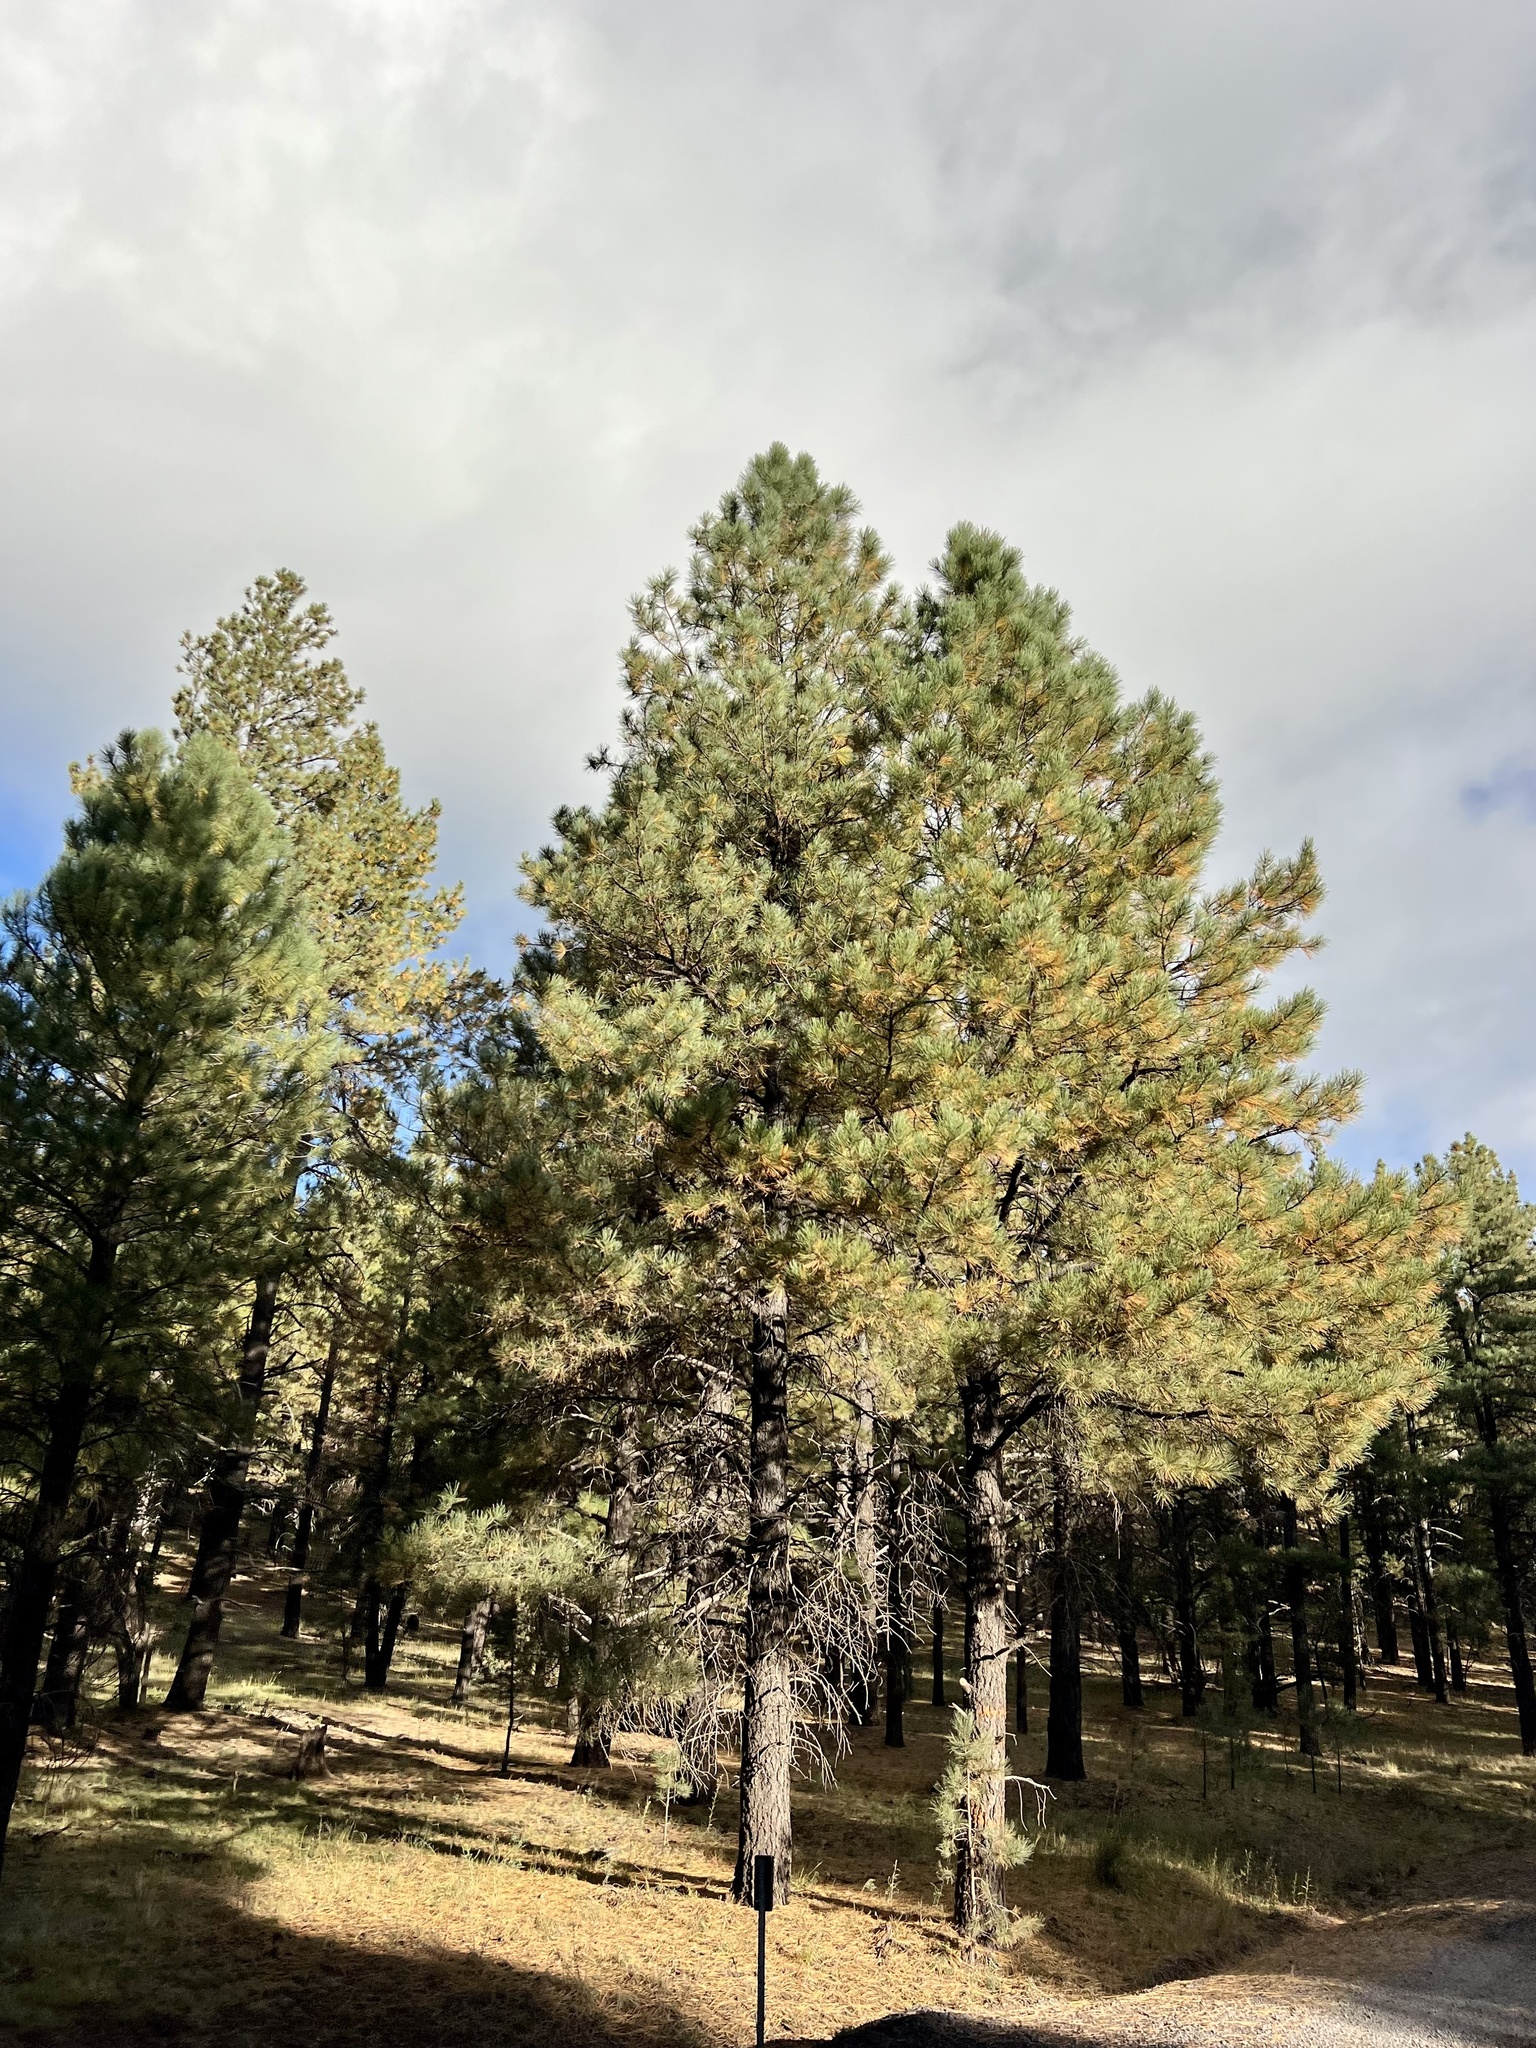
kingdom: Plantae
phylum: Tracheophyta
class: Pinopsida
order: Pinales
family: Pinaceae
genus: Pinus
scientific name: Pinus ponderosa
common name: Western yellow-pine
